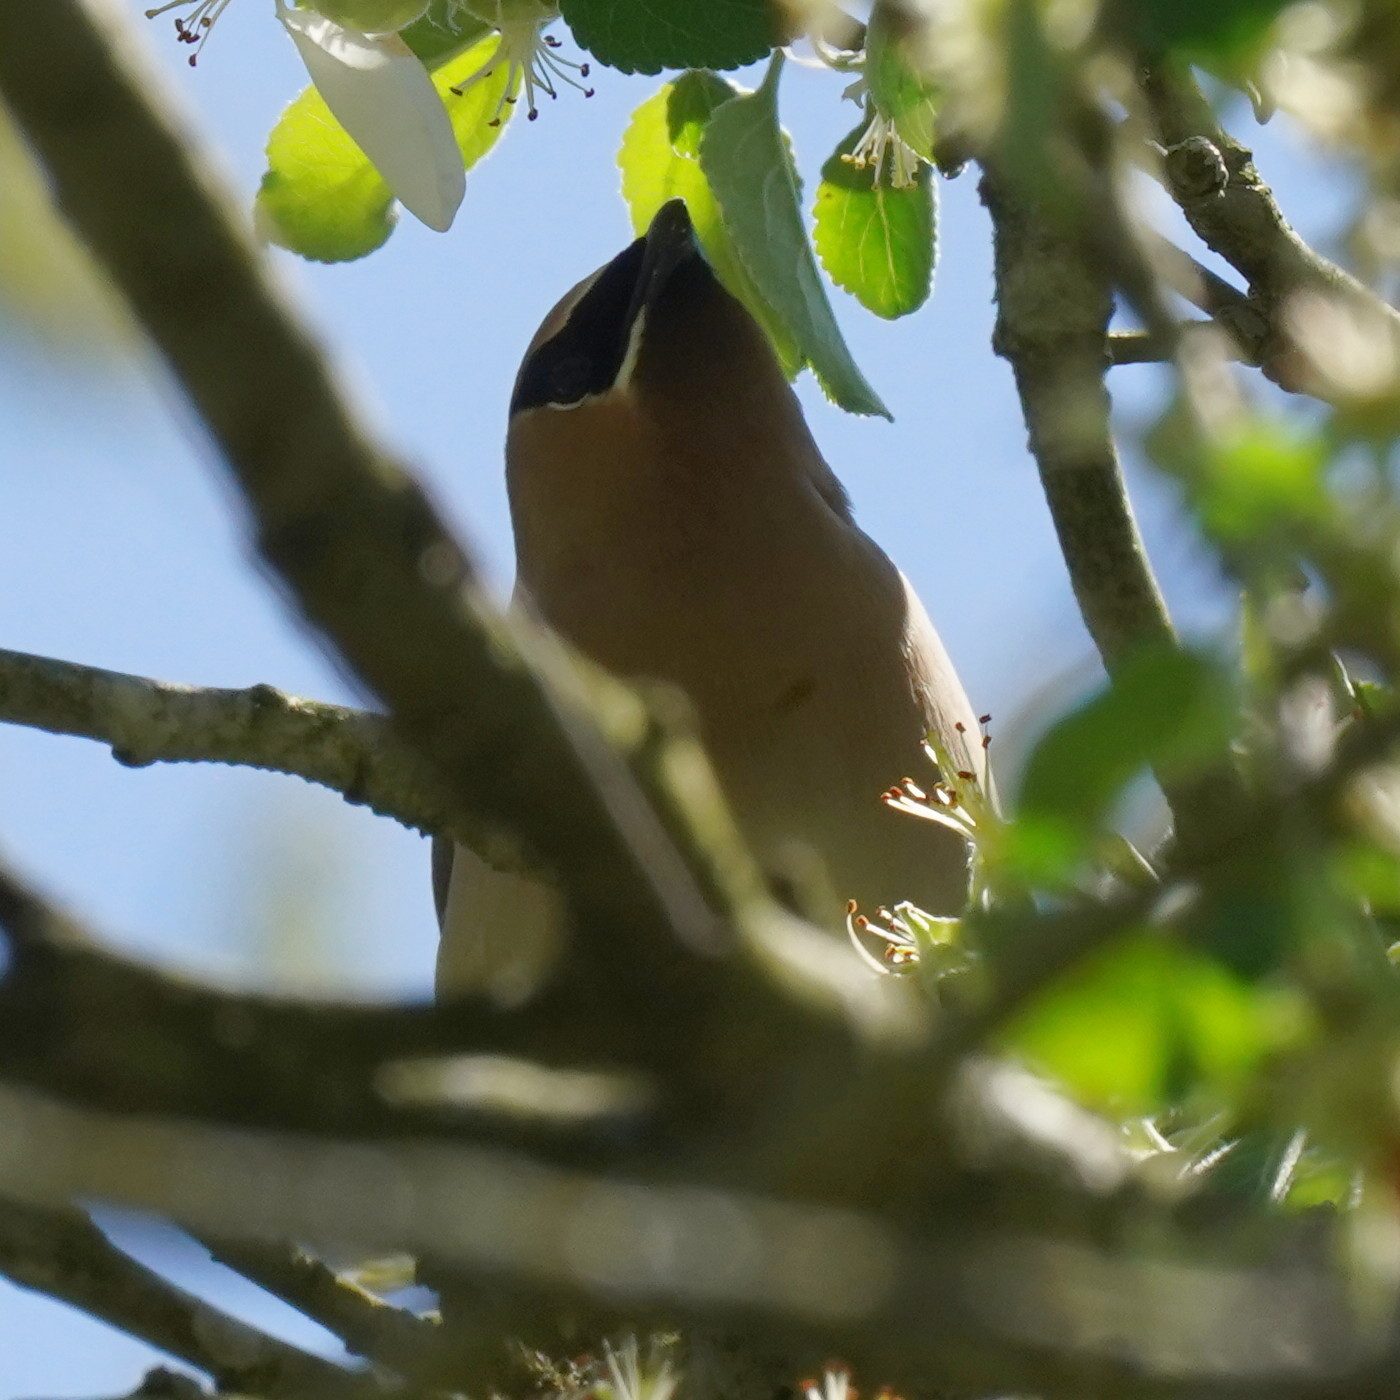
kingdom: Animalia
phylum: Chordata
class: Aves
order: Passeriformes
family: Bombycillidae
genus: Bombycilla
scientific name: Bombycilla cedrorum
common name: Cedar waxwing
